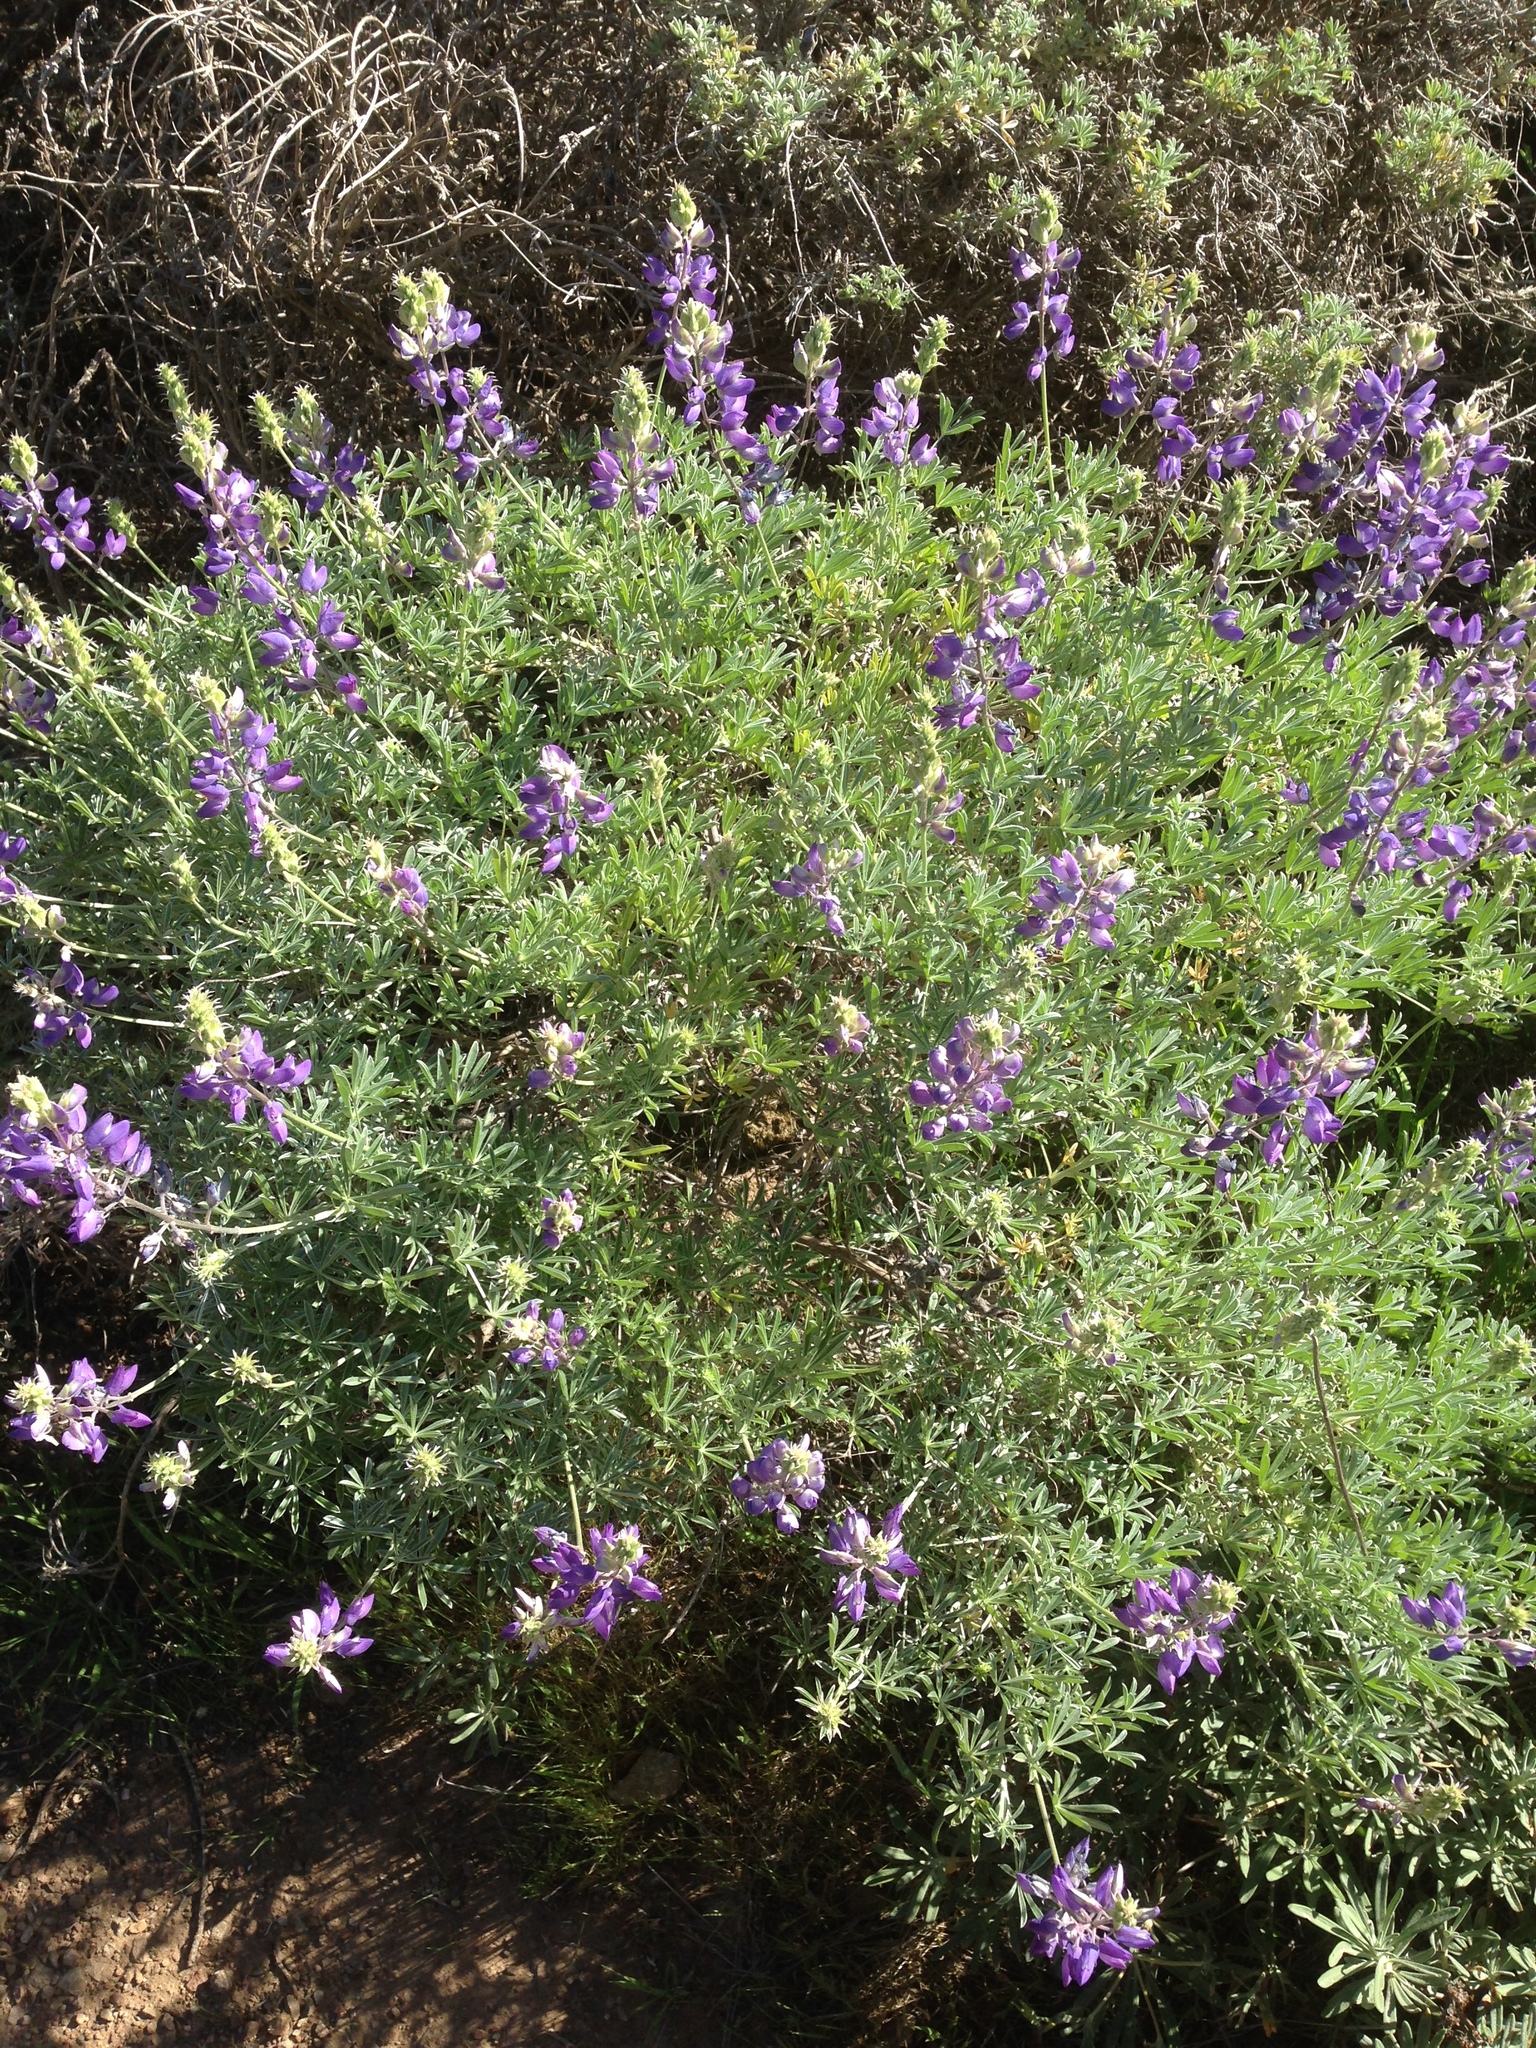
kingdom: Plantae
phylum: Tracheophyta
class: Magnoliopsida
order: Fabales
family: Fabaceae
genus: Lupinus
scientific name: Lupinus albifrons
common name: Foothill lupine
